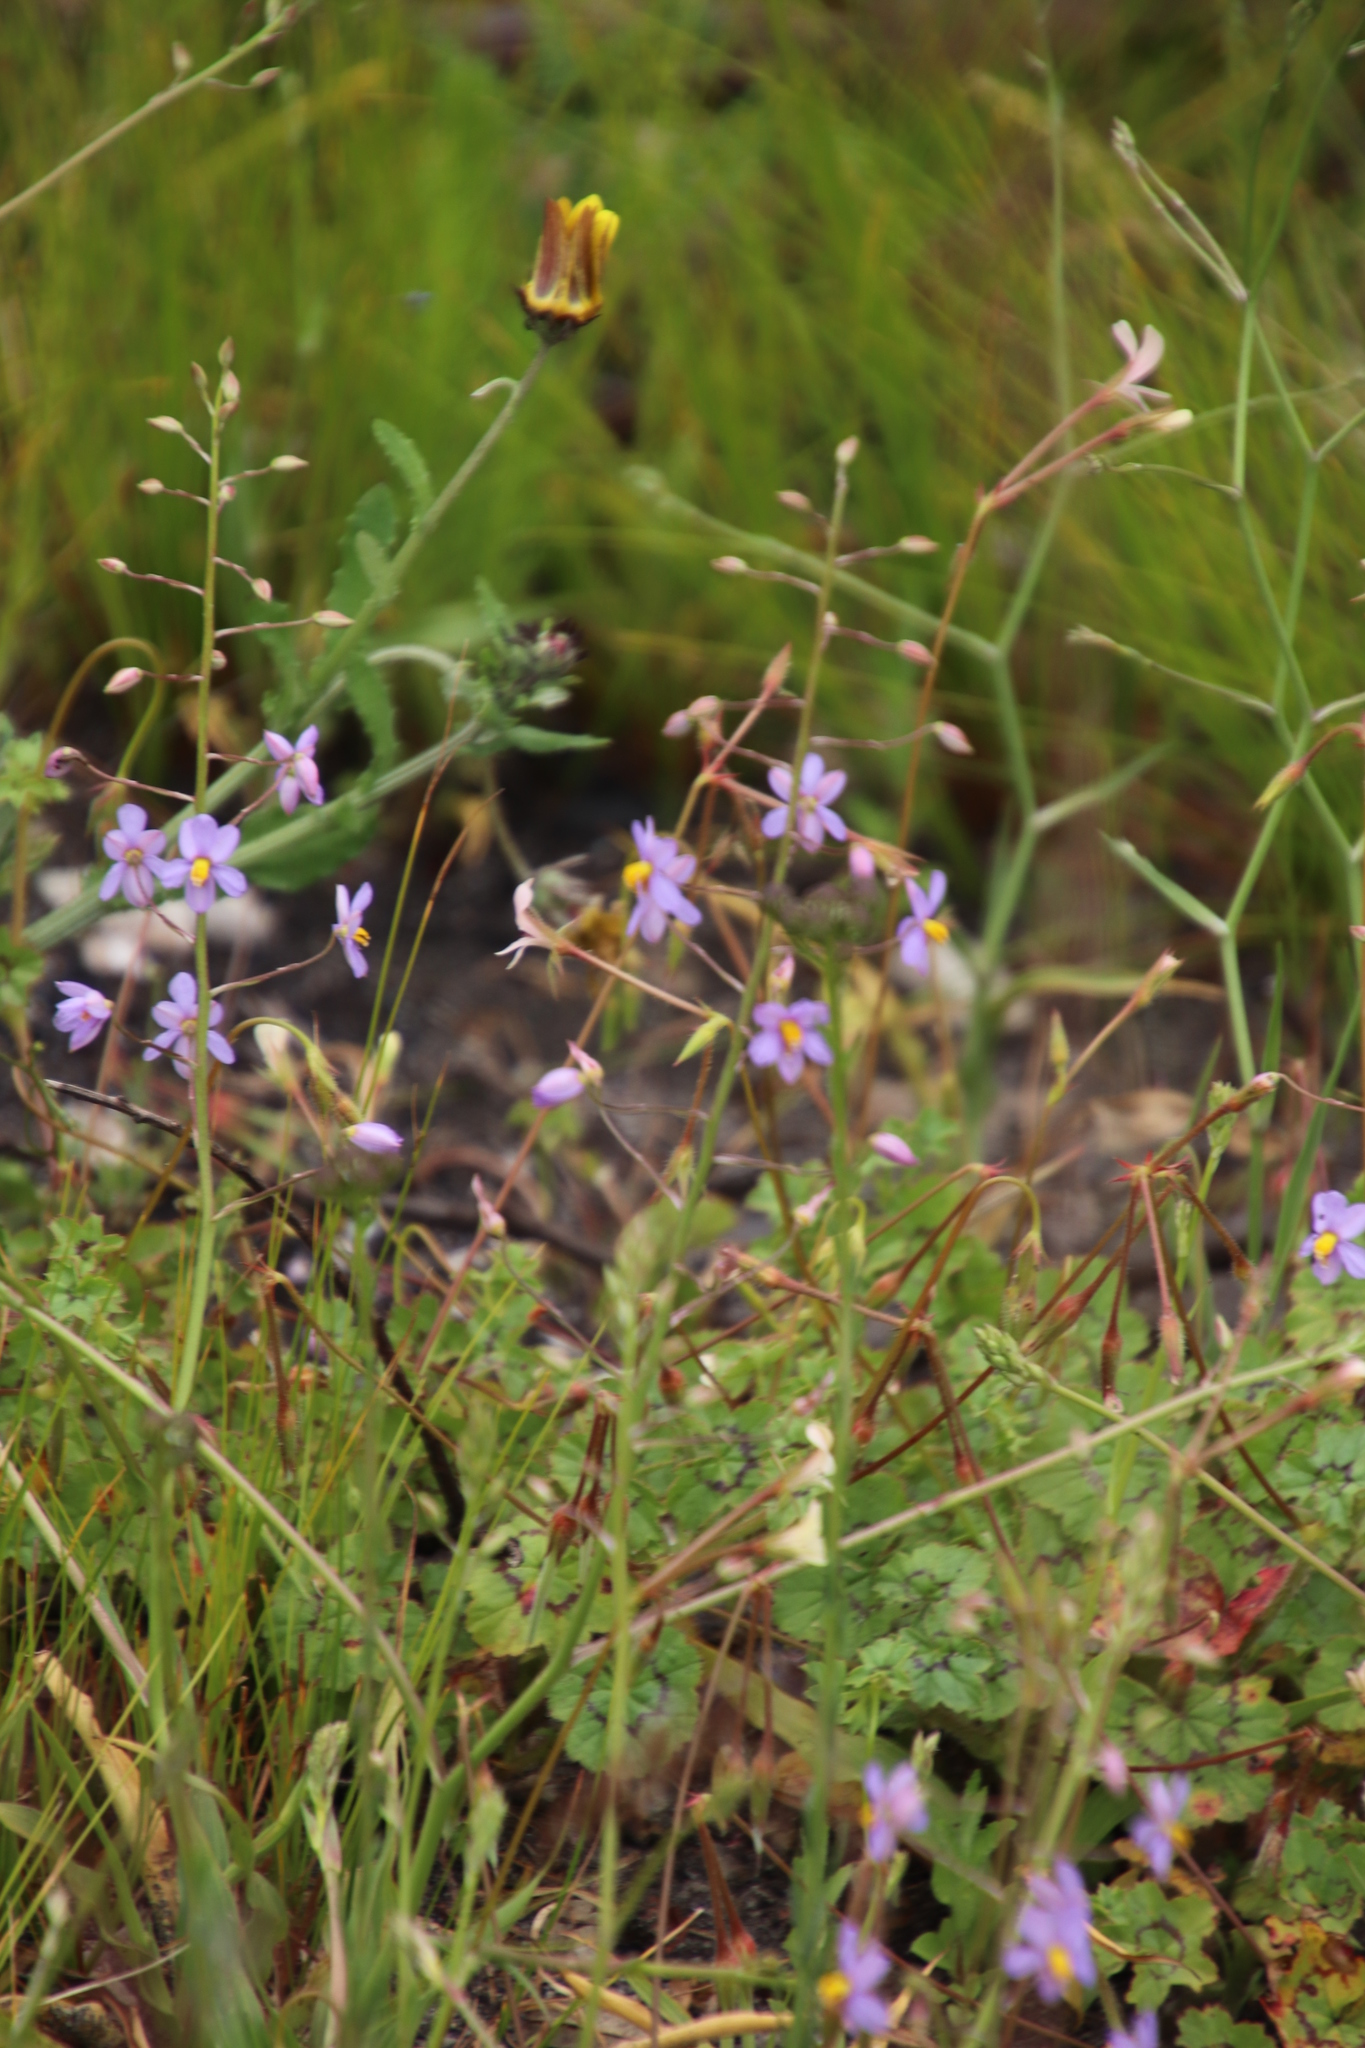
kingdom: Plantae
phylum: Tracheophyta
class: Liliopsida
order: Asparagales
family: Tecophilaeaceae
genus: Cyanella
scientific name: Cyanella hyacinthoides
